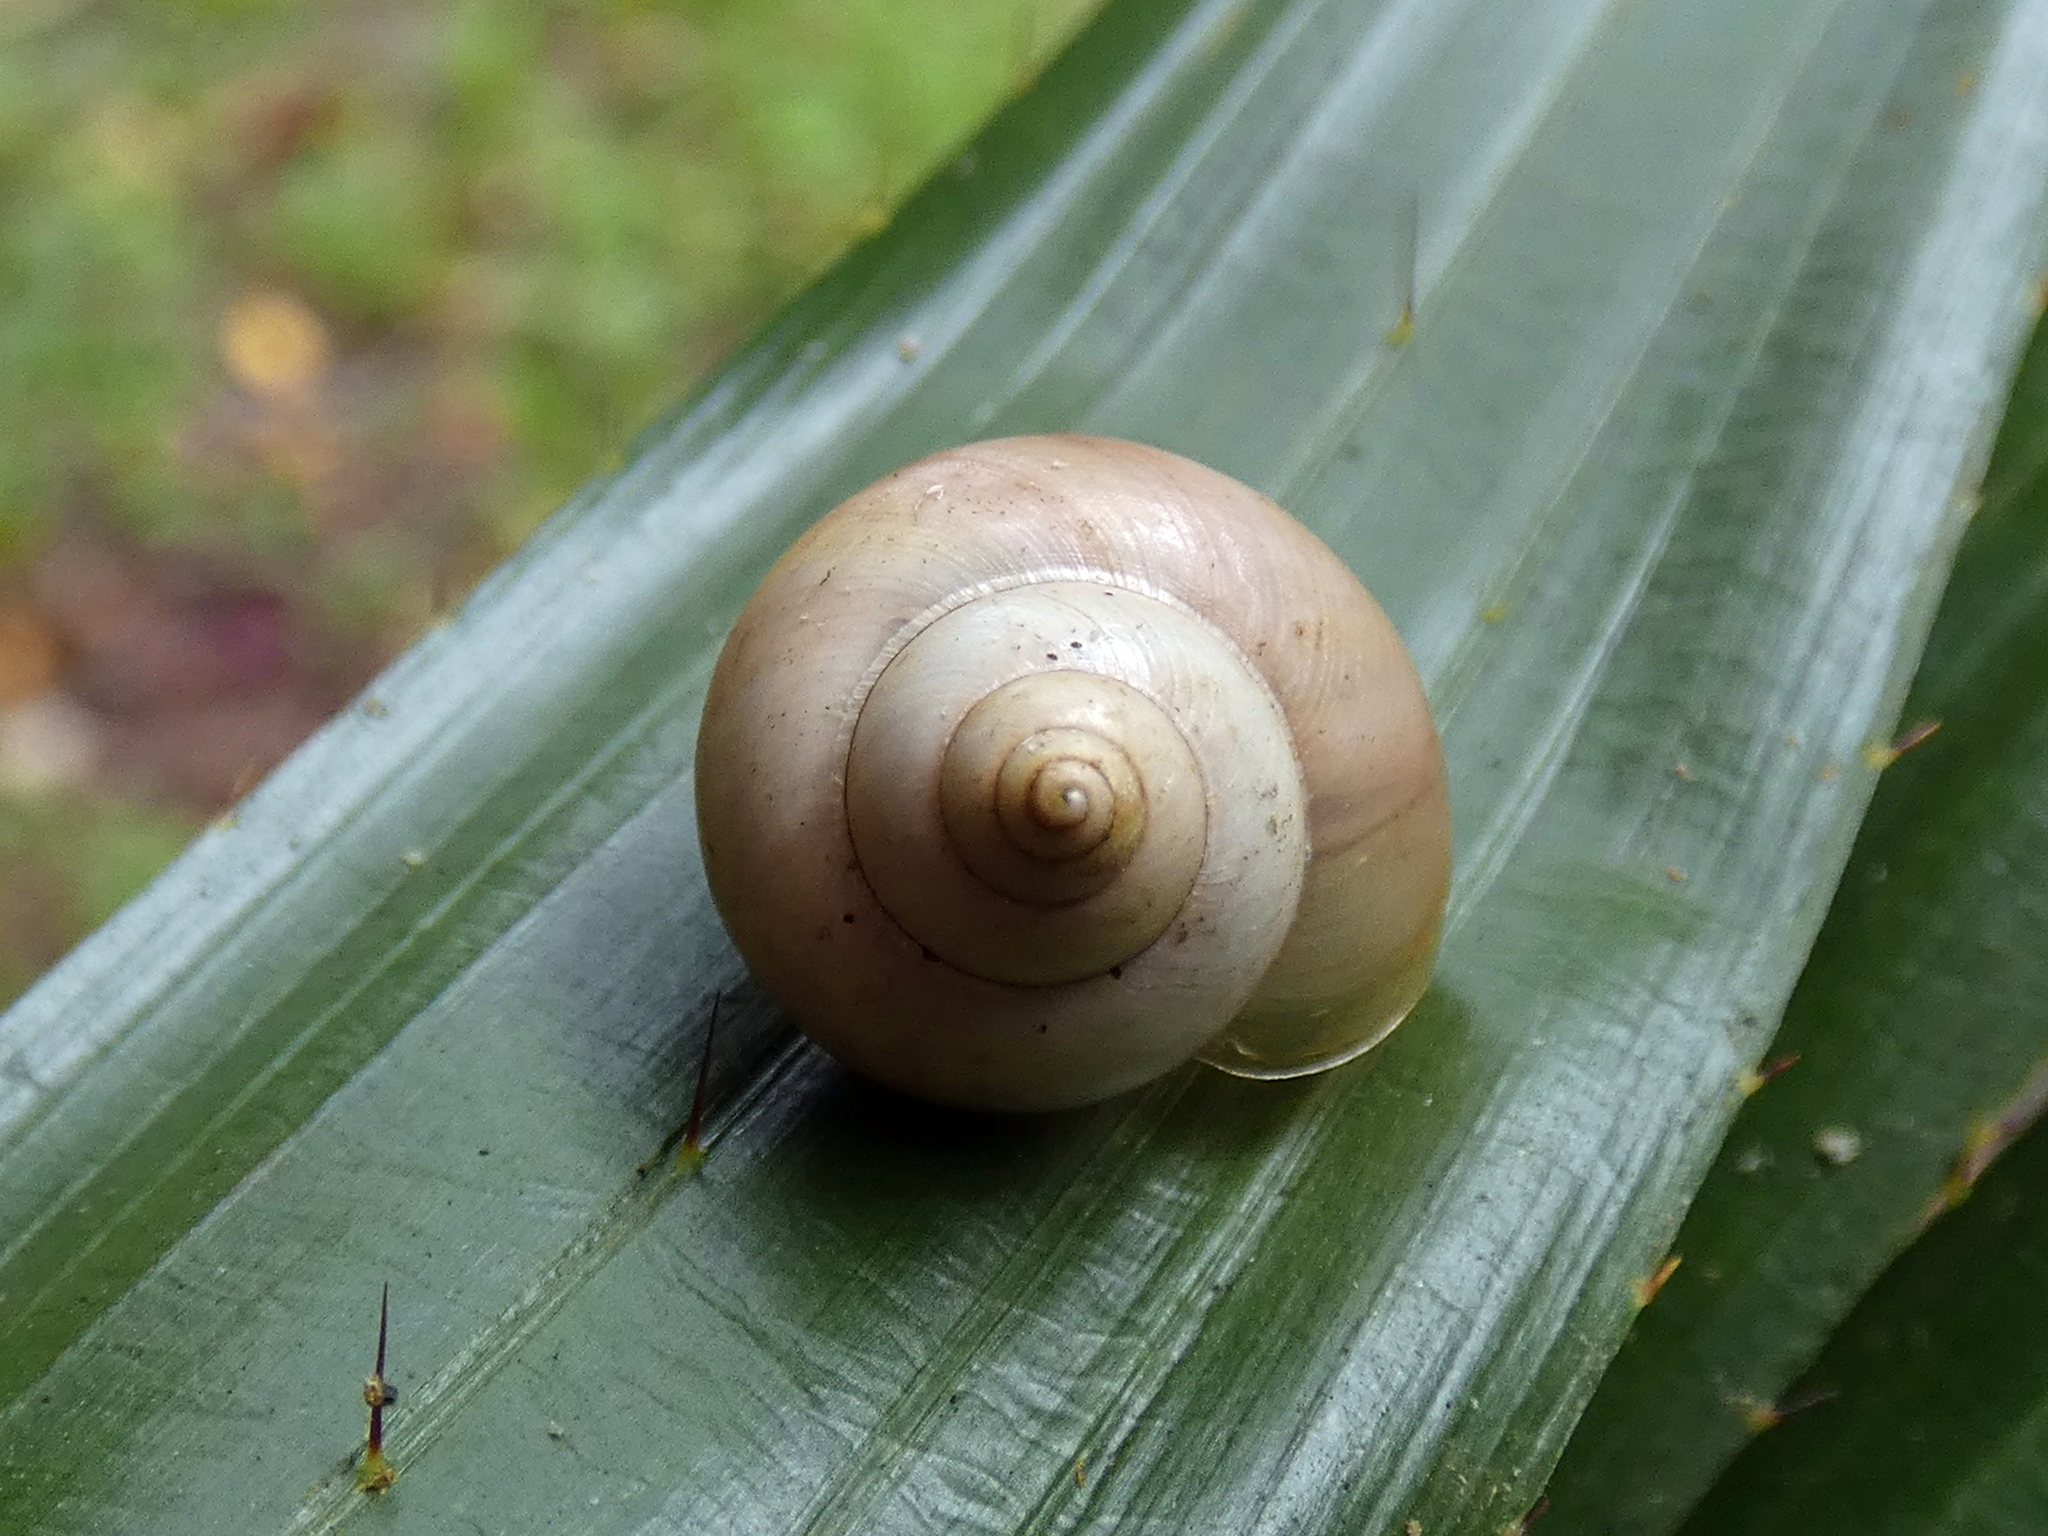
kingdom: Animalia
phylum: Mollusca
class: Gastropoda
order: Architaenioglossa
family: Cyclophoridae
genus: Leptopoma
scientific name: Leptopoma perlucidum
